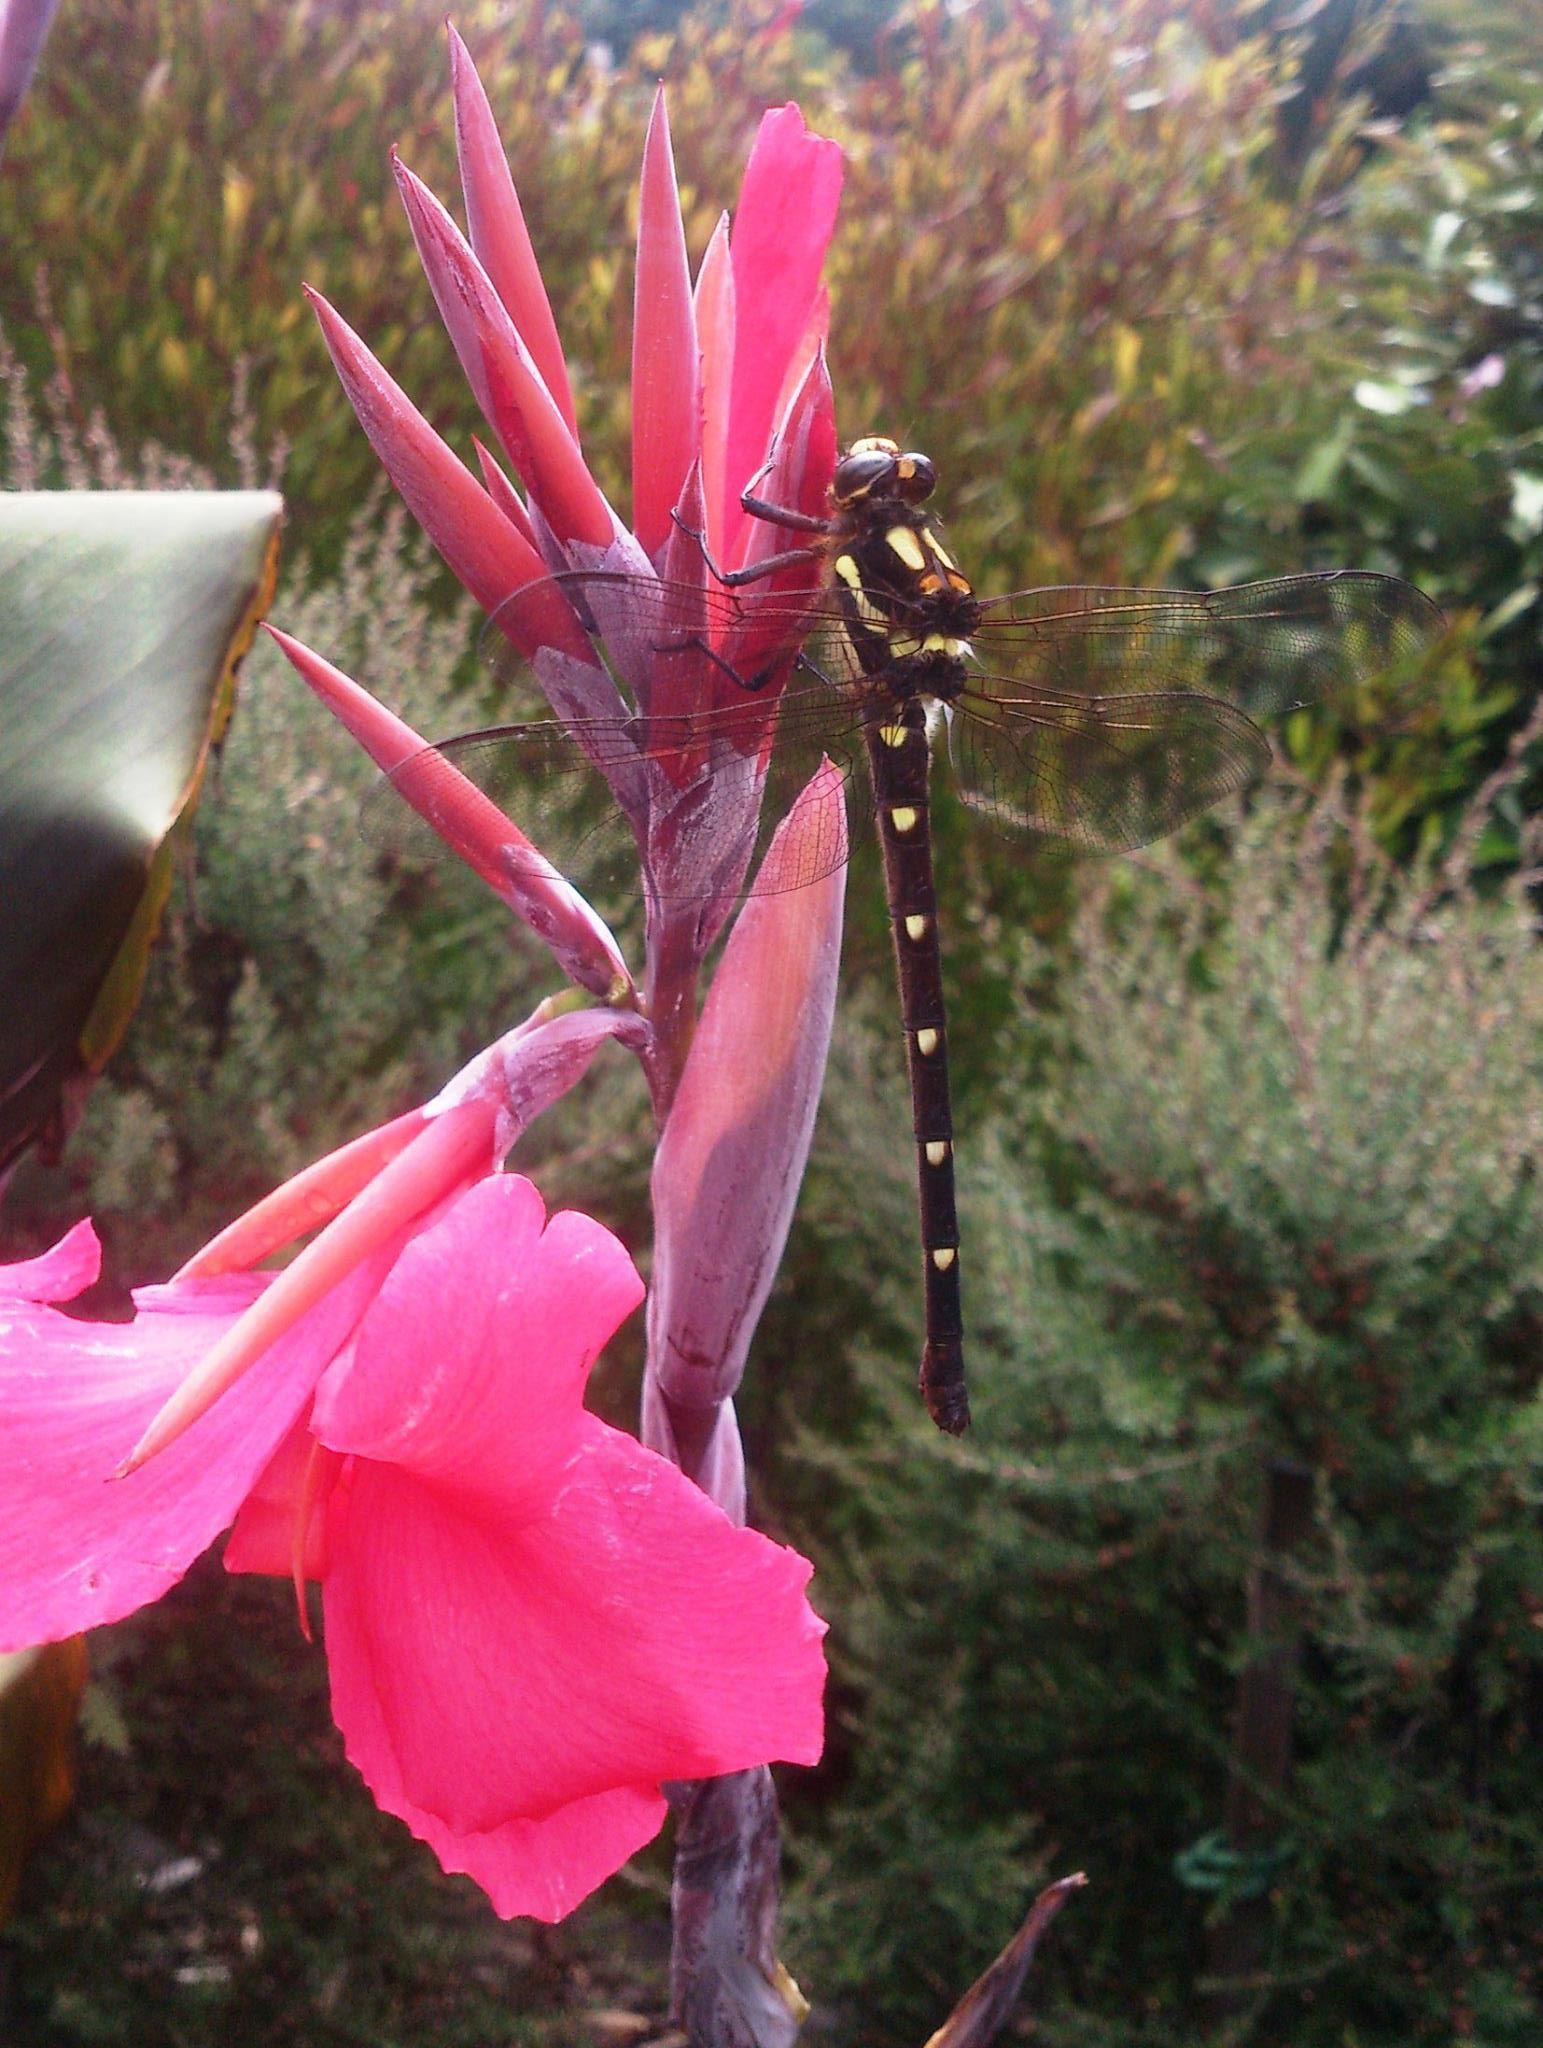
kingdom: Animalia
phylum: Arthropoda
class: Insecta
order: Odonata
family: Petaluridae
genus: Uropetala
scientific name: Uropetala carovei
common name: Bush giant dragonfly
